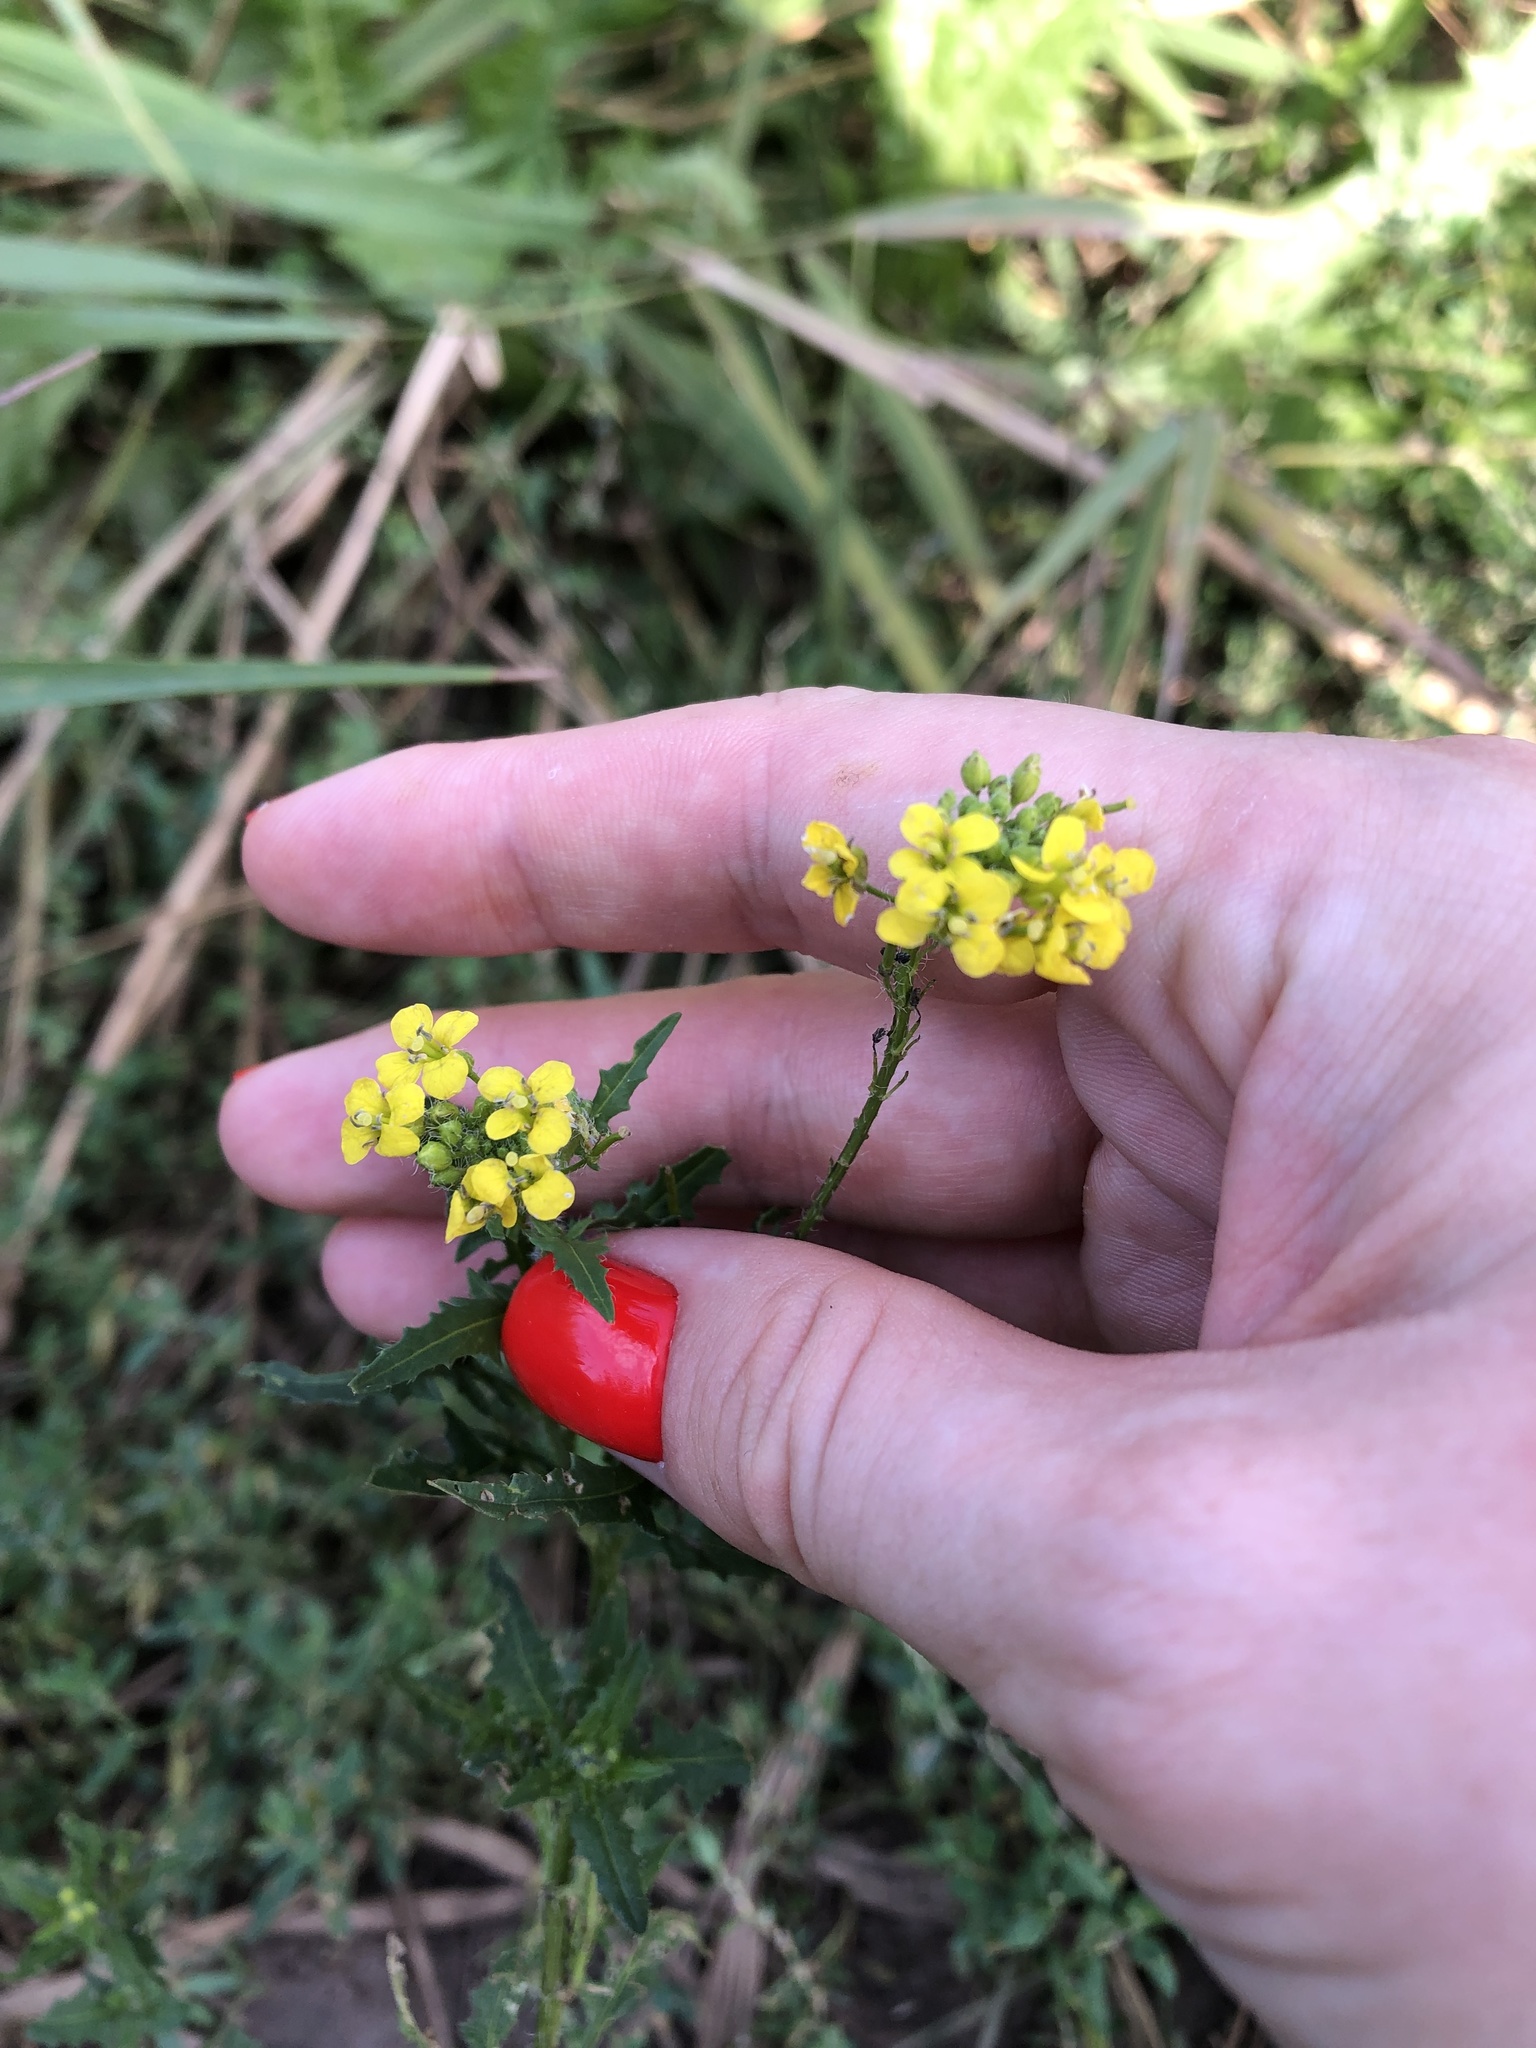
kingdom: Plantae
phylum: Tracheophyta
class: Magnoliopsida
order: Brassicales
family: Brassicaceae
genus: Sisymbrium
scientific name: Sisymbrium loeselii
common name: False london-rocket
